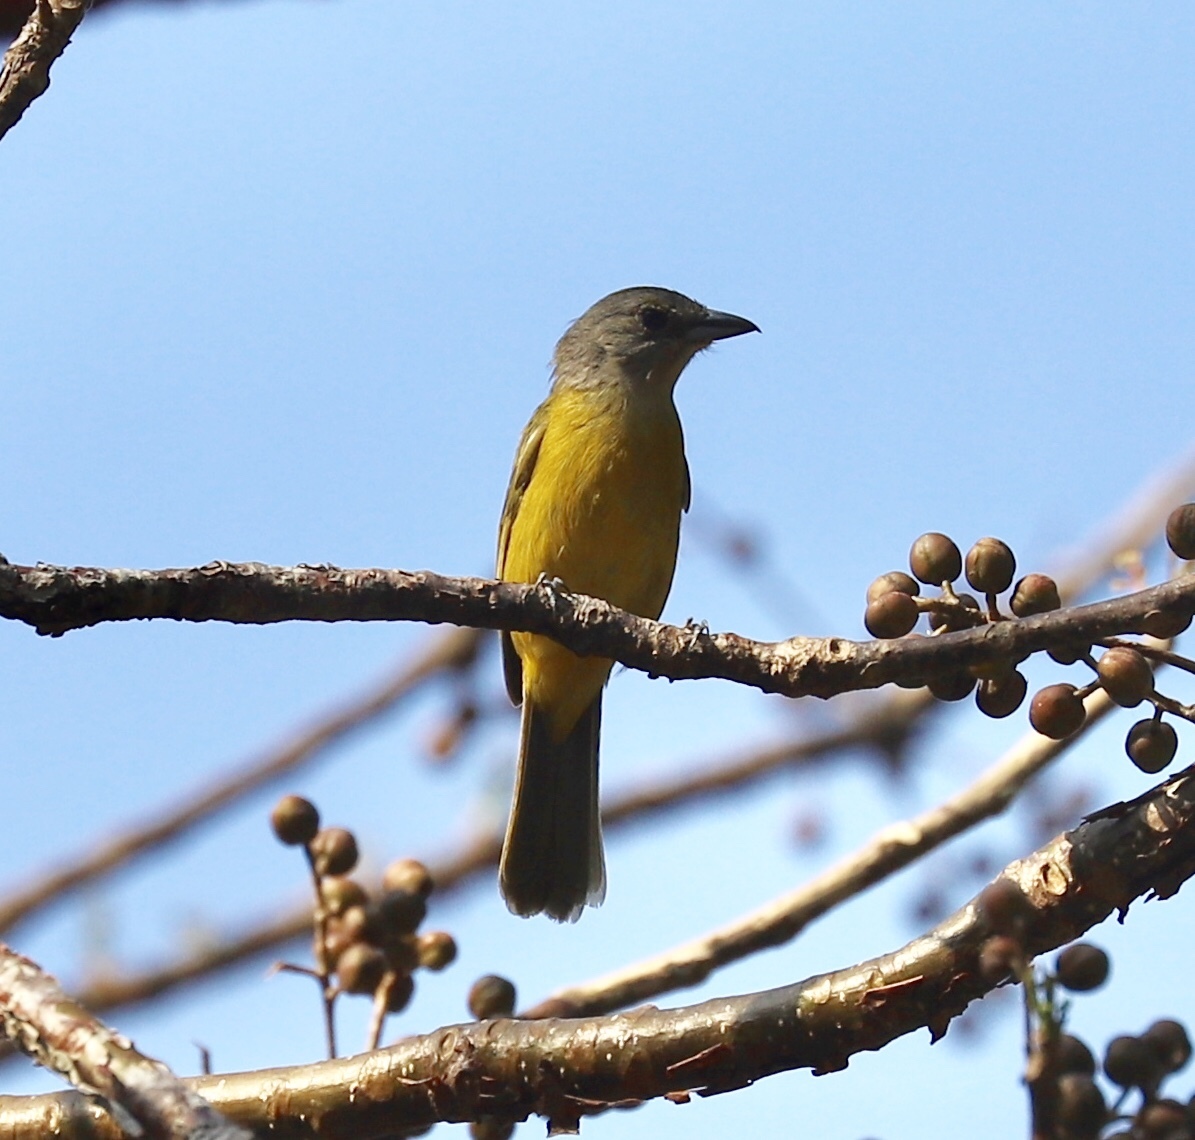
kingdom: Animalia
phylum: Chordata
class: Aves
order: Passeriformes
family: Thraupidae
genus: Loriotus
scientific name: Loriotus luctuosus
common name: White-shouldered tanager
